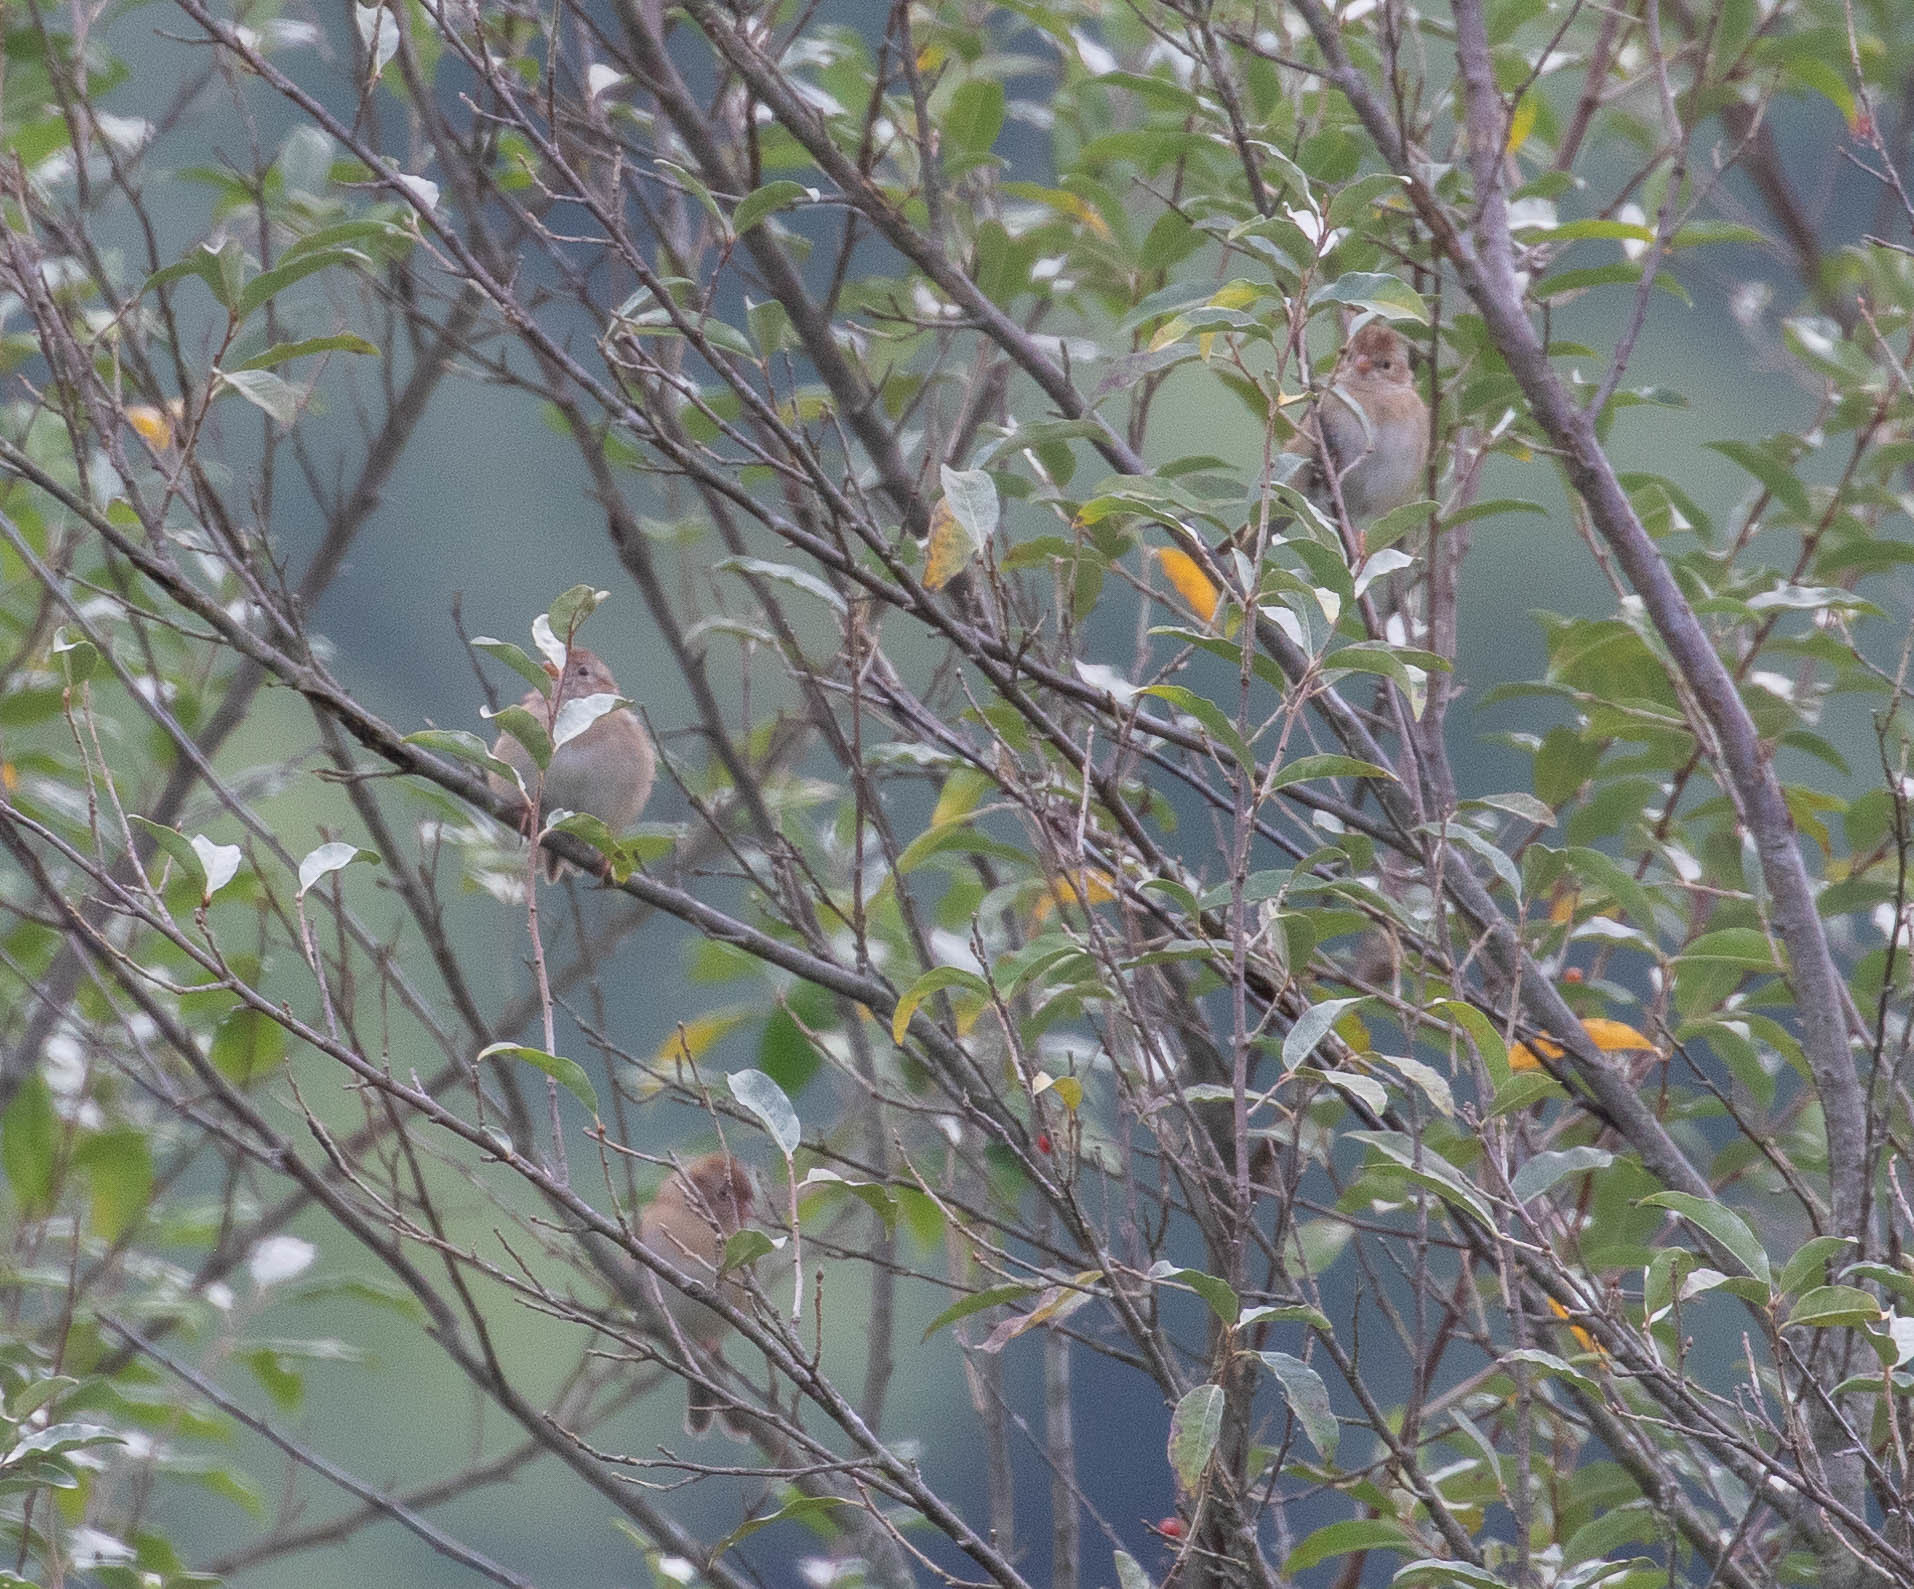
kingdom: Animalia
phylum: Chordata
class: Aves
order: Passeriformes
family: Passerellidae
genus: Spizella
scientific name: Spizella pusilla
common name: Field sparrow
